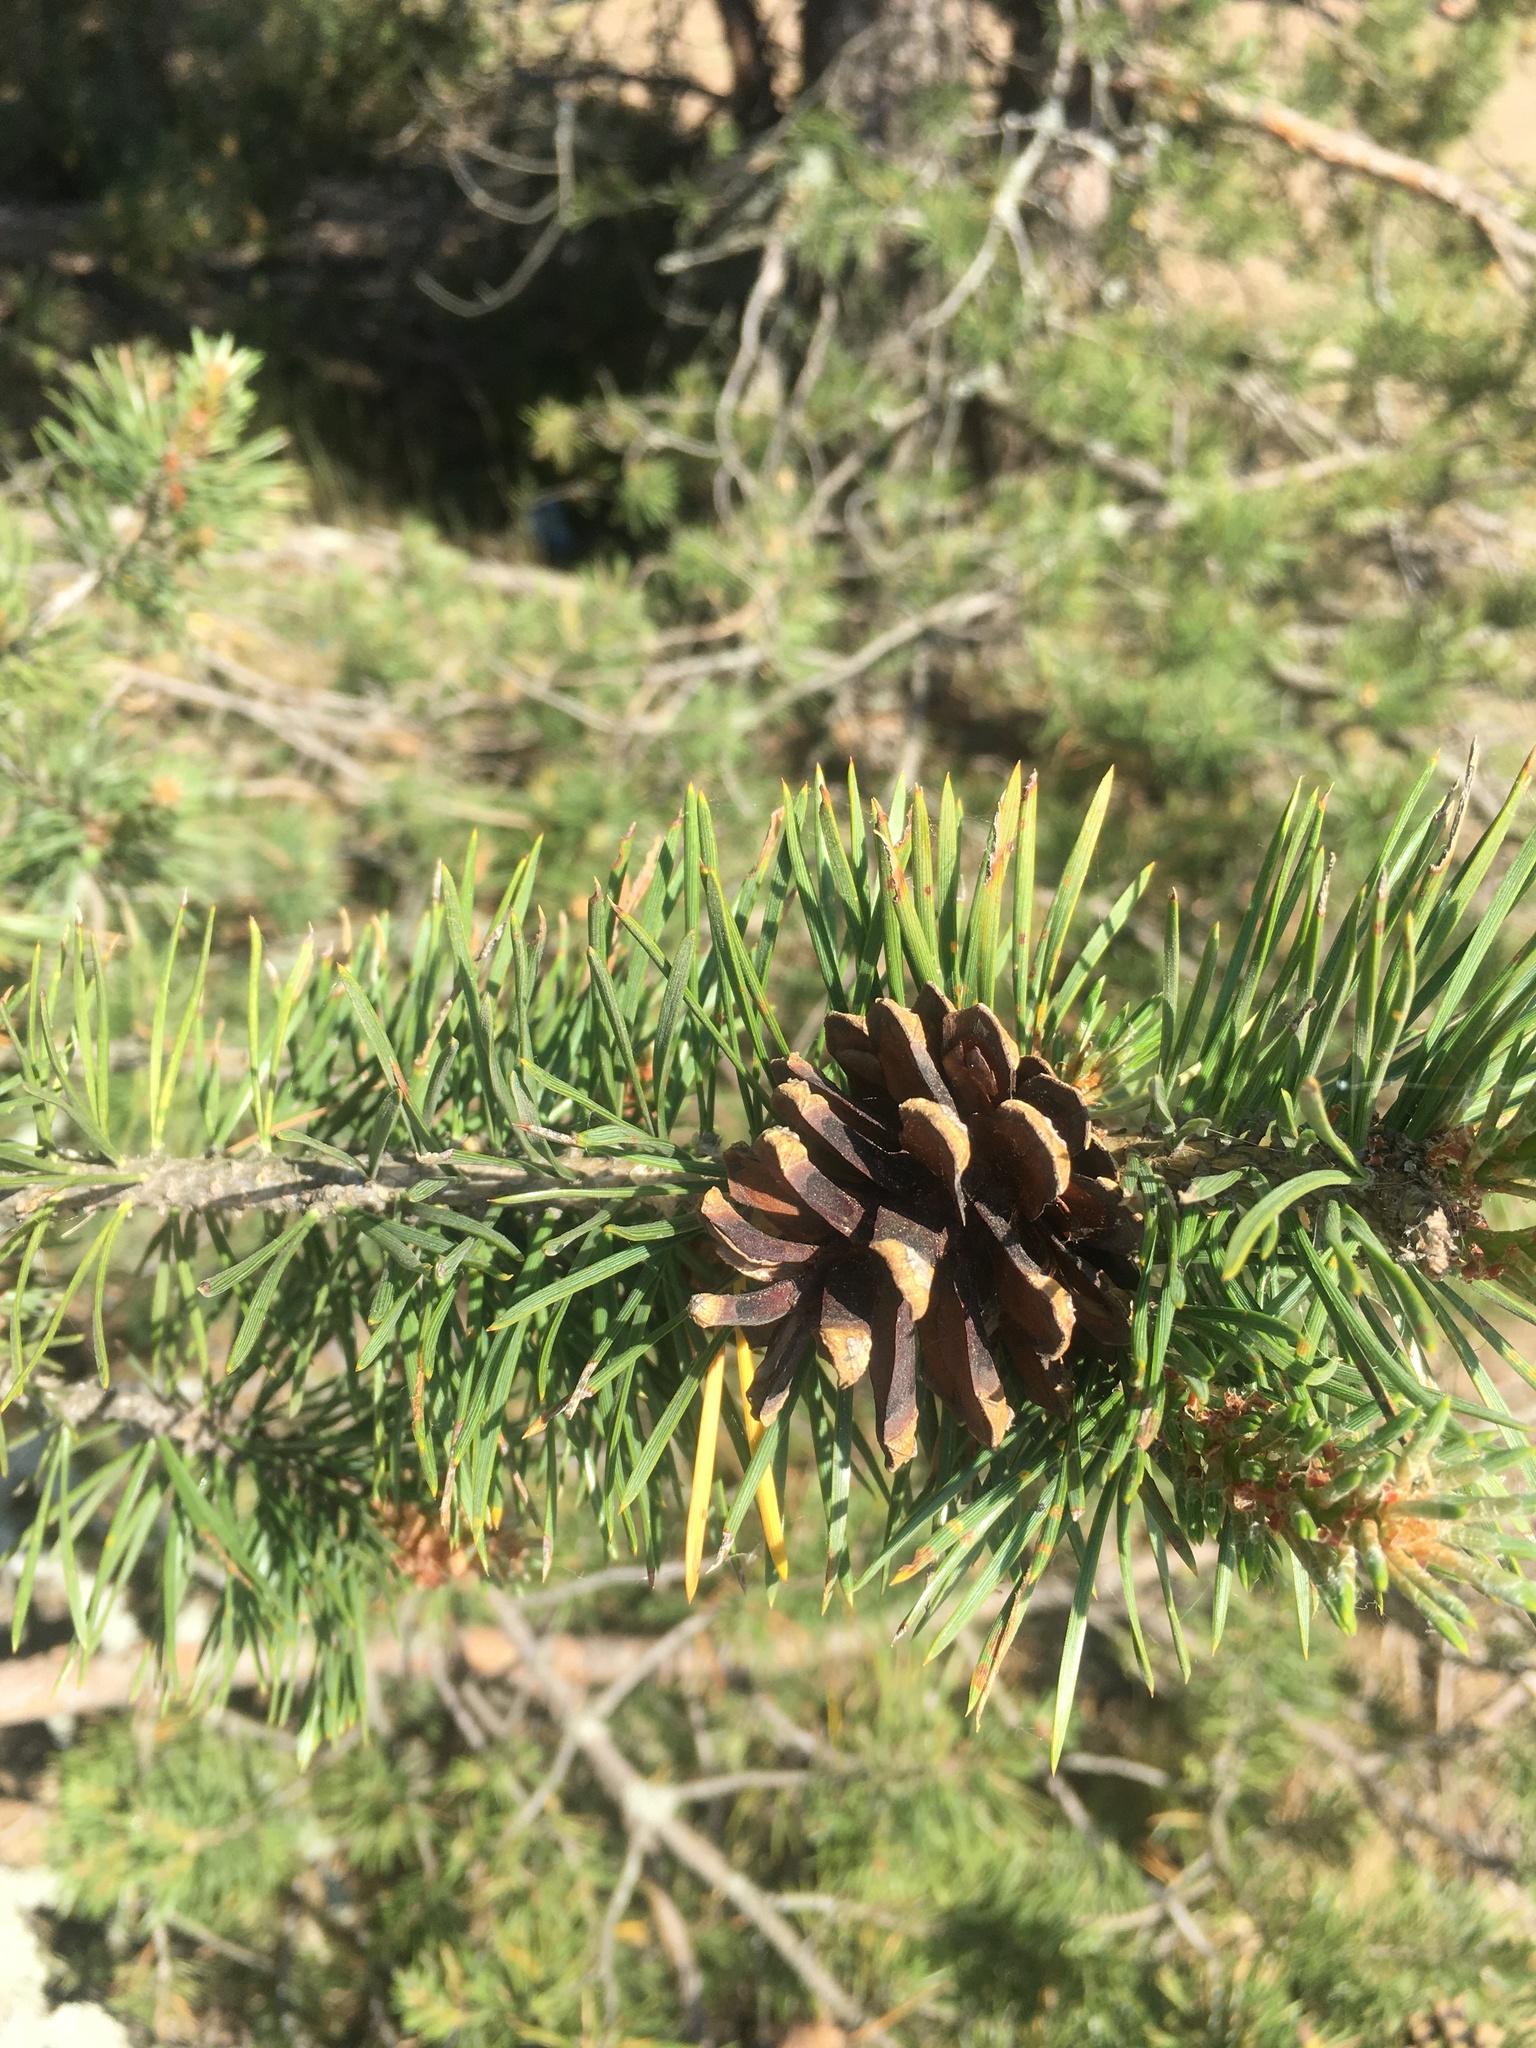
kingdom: Plantae
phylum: Tracheophyta
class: Pinopsida
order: Pinales
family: Pinaceae
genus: Pinus
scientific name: Pinus sylvestris
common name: Scots pine
